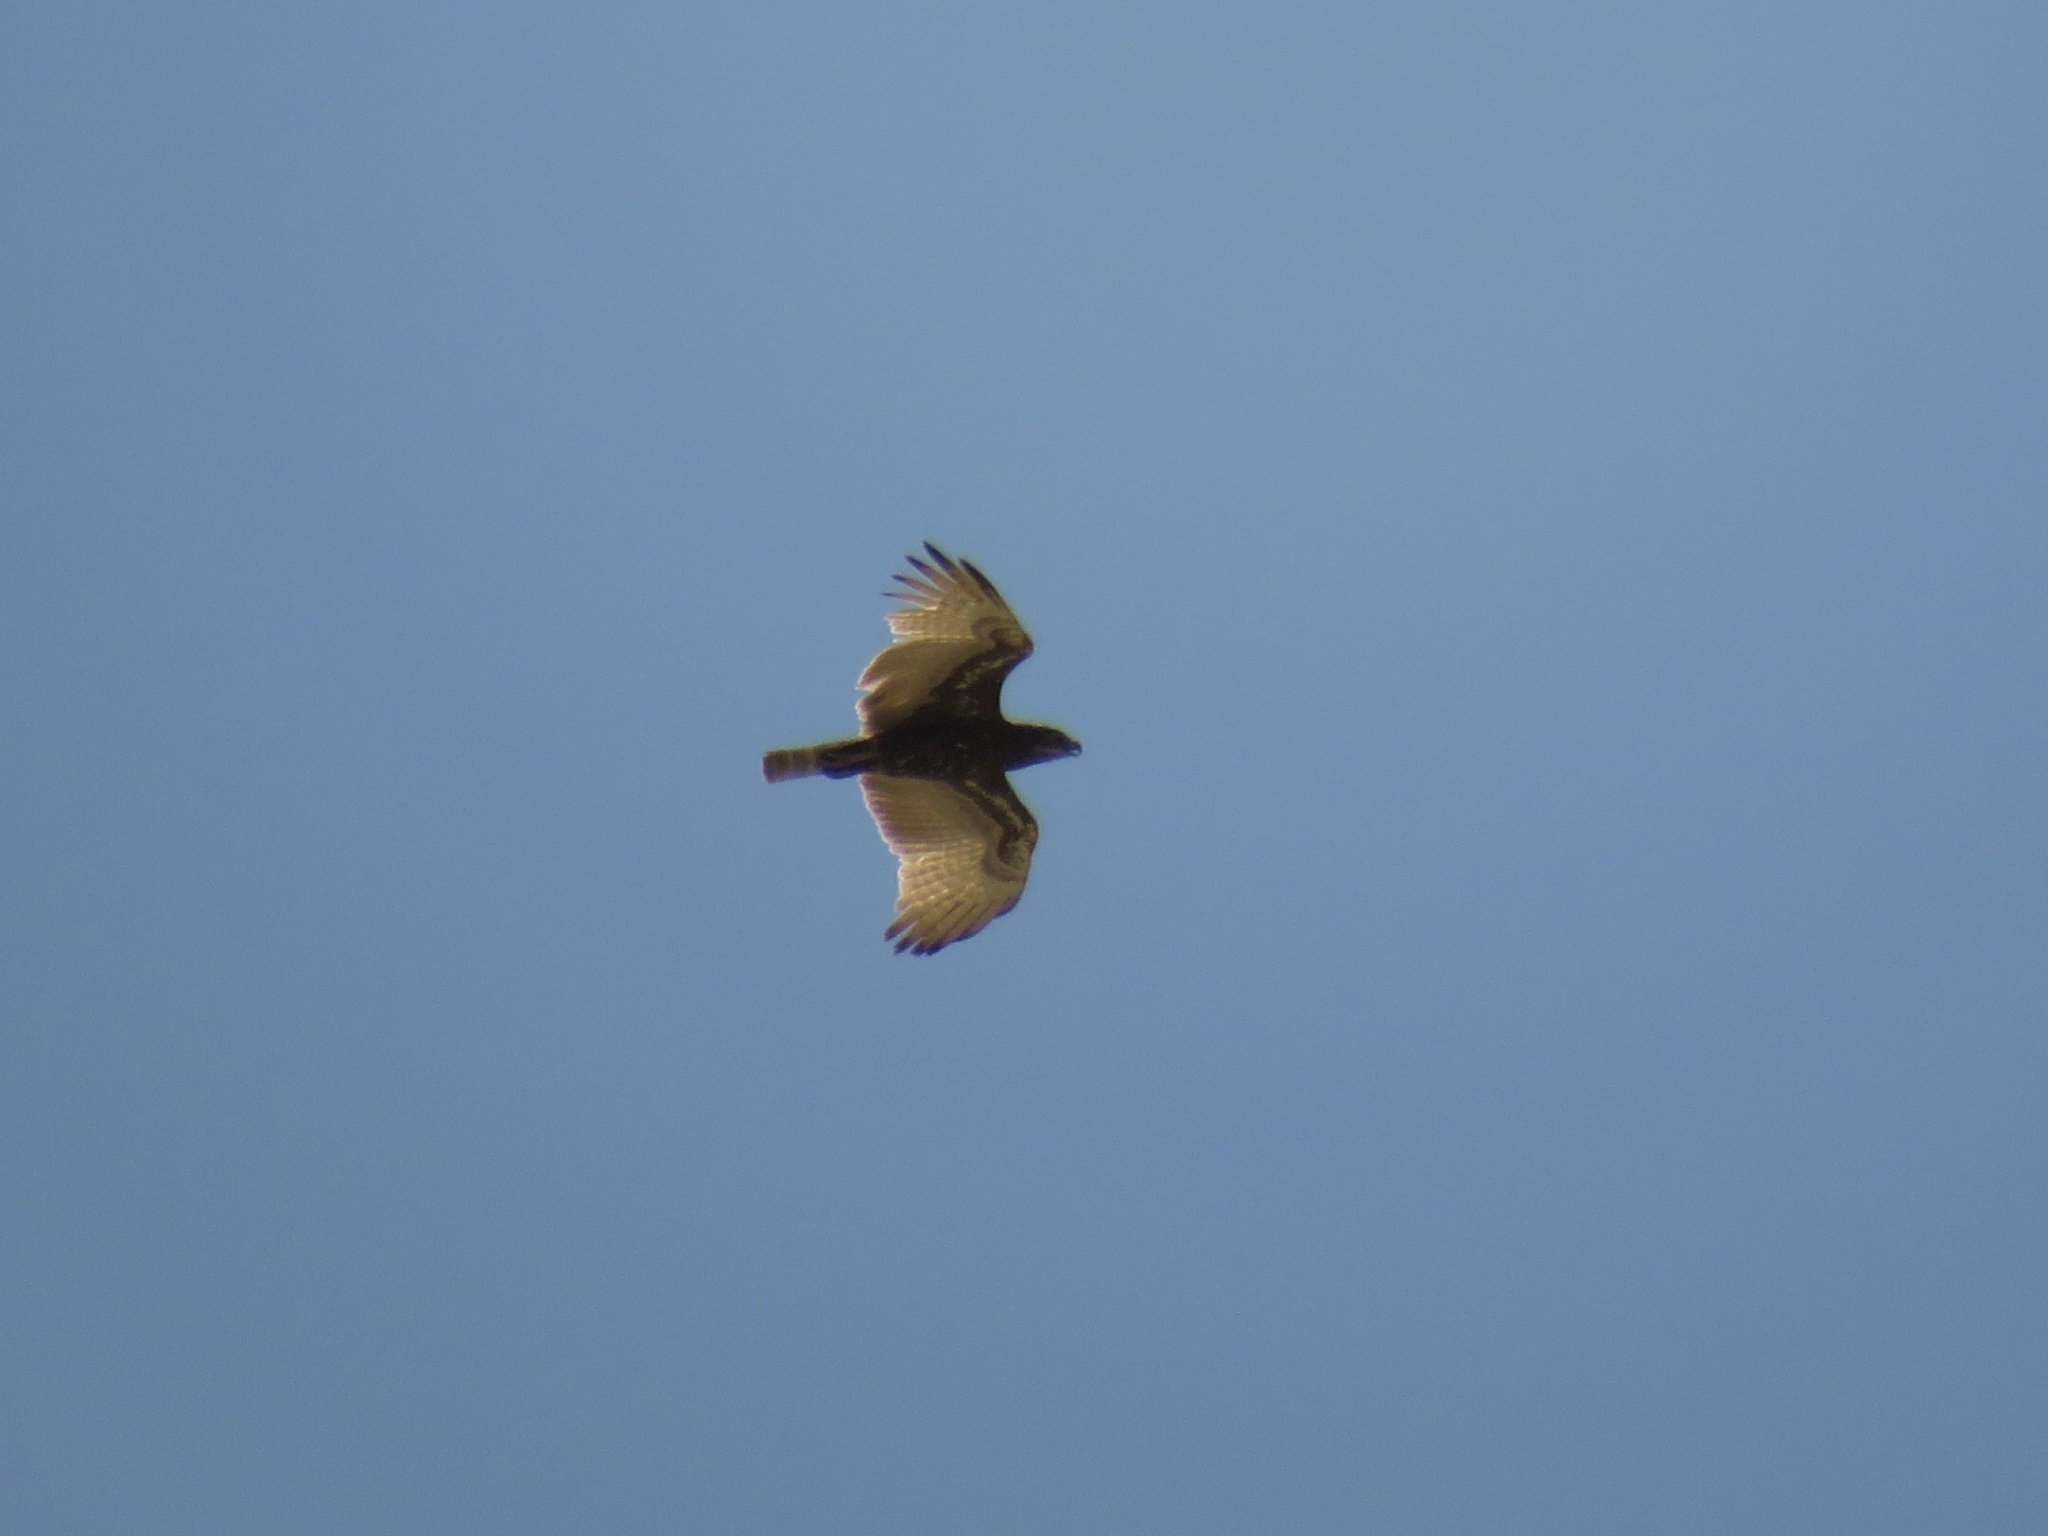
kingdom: Animalia
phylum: Chordata
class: Aves
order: Accipitriformes
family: Accipitridae
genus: Circaetus
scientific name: Circaetus cinereus
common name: Brown snake eagle
